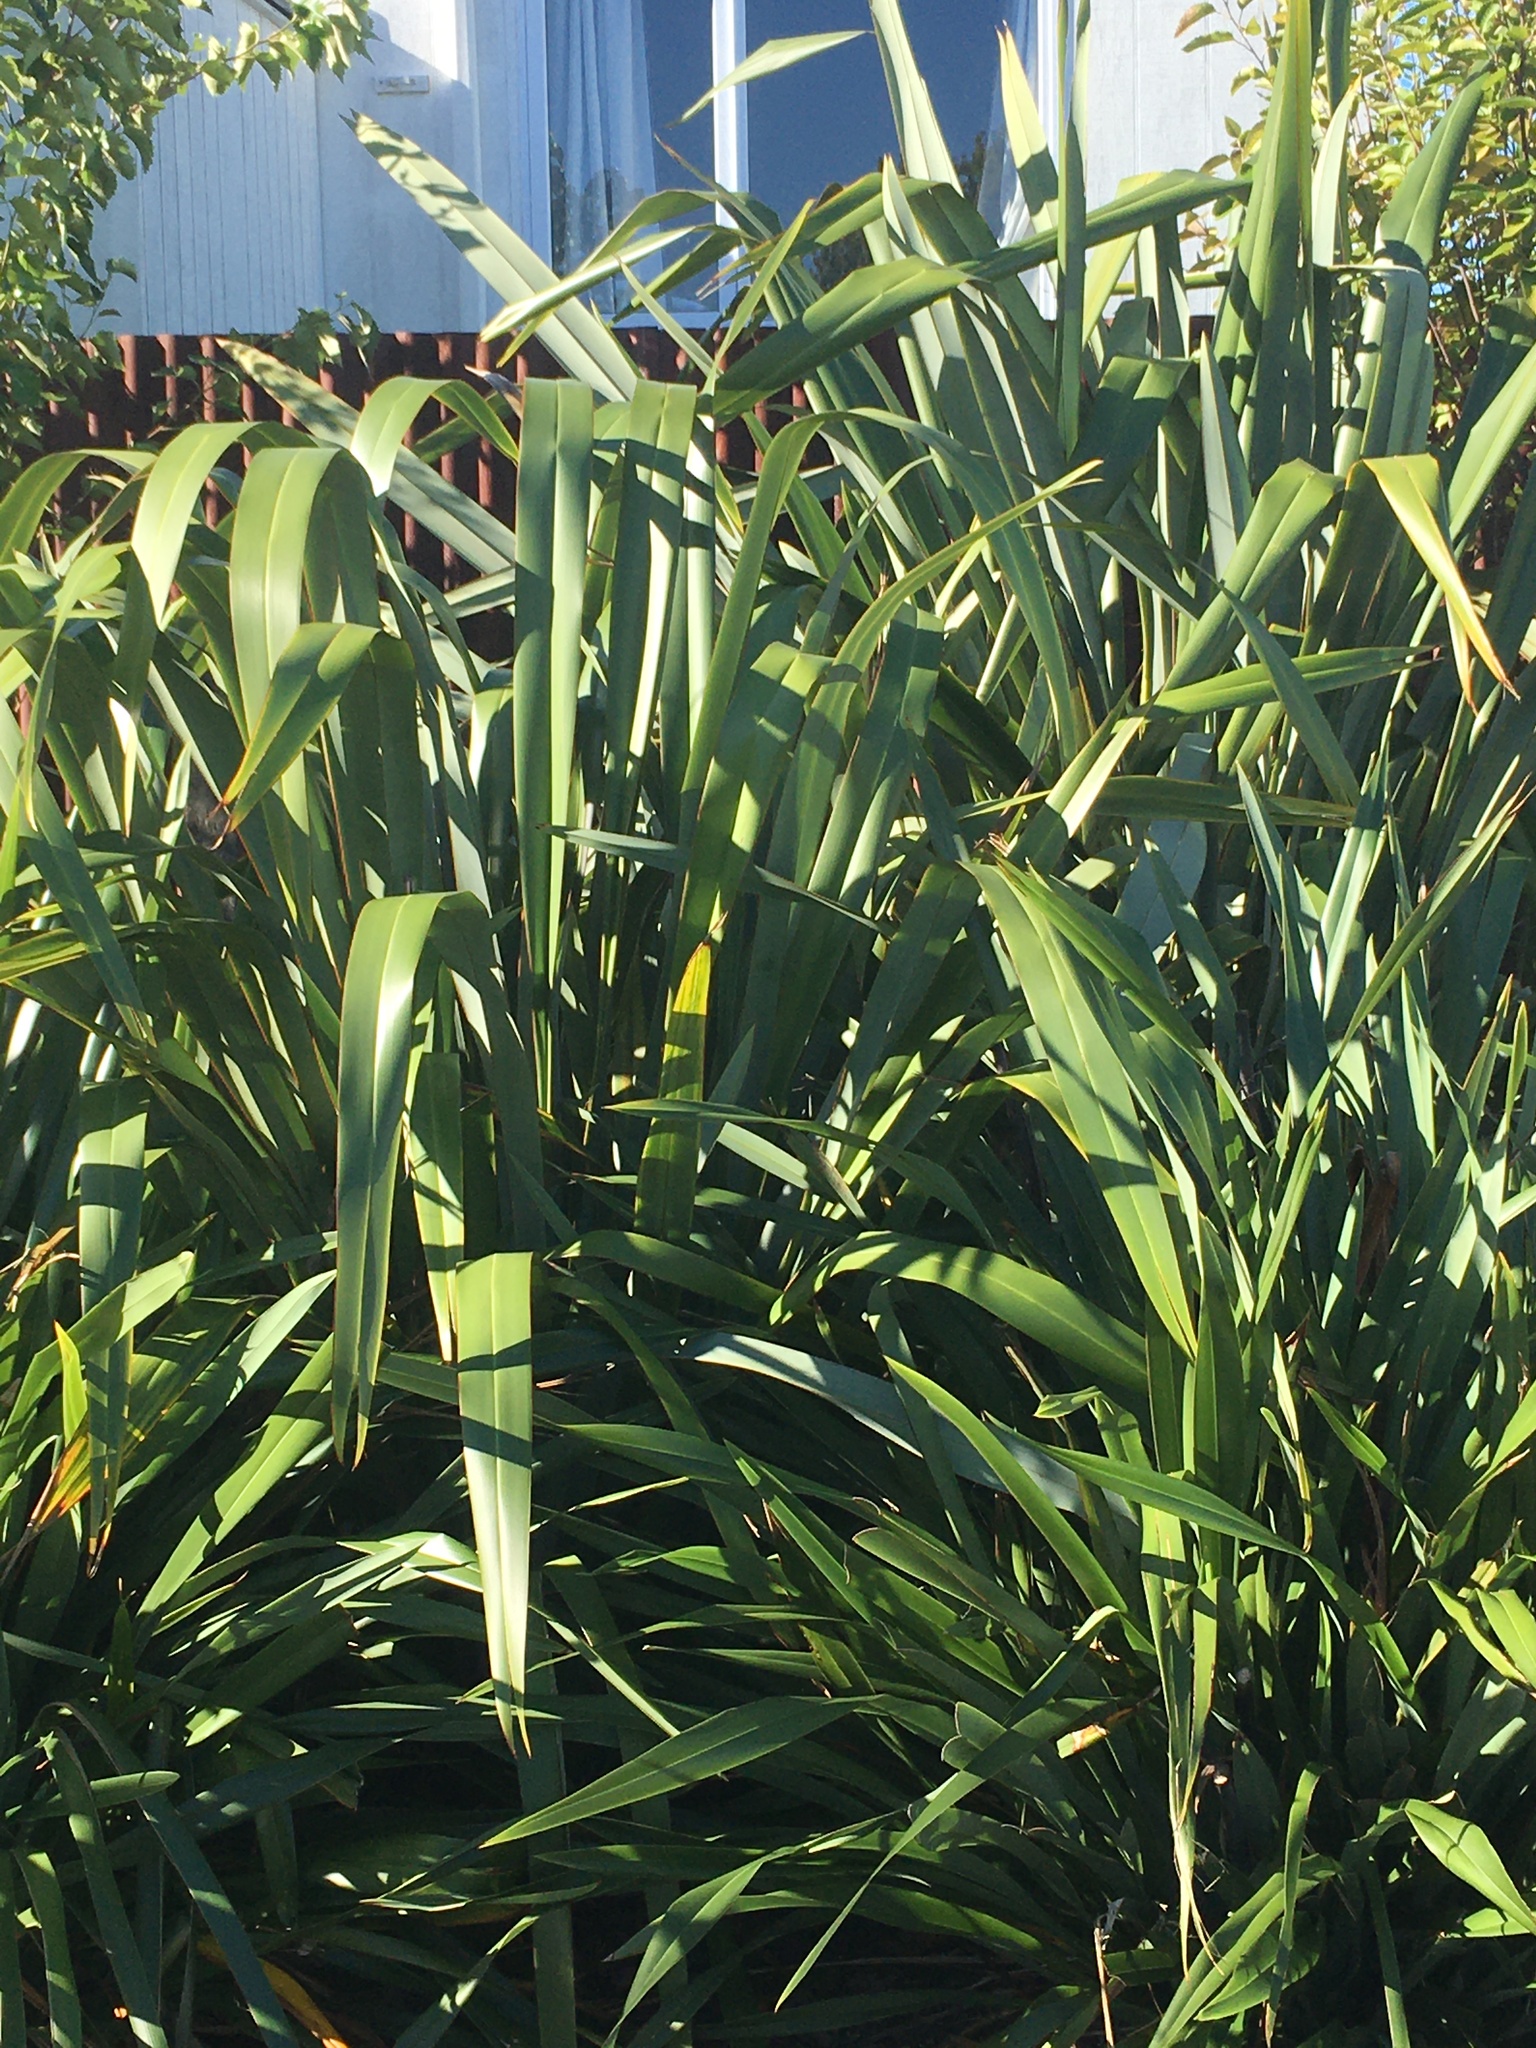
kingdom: Plantae
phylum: Tracheophyta
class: Liliopsida
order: Asparagales
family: Asphodelaceae
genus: Phormium
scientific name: Phormium tenax
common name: New zealand flax
